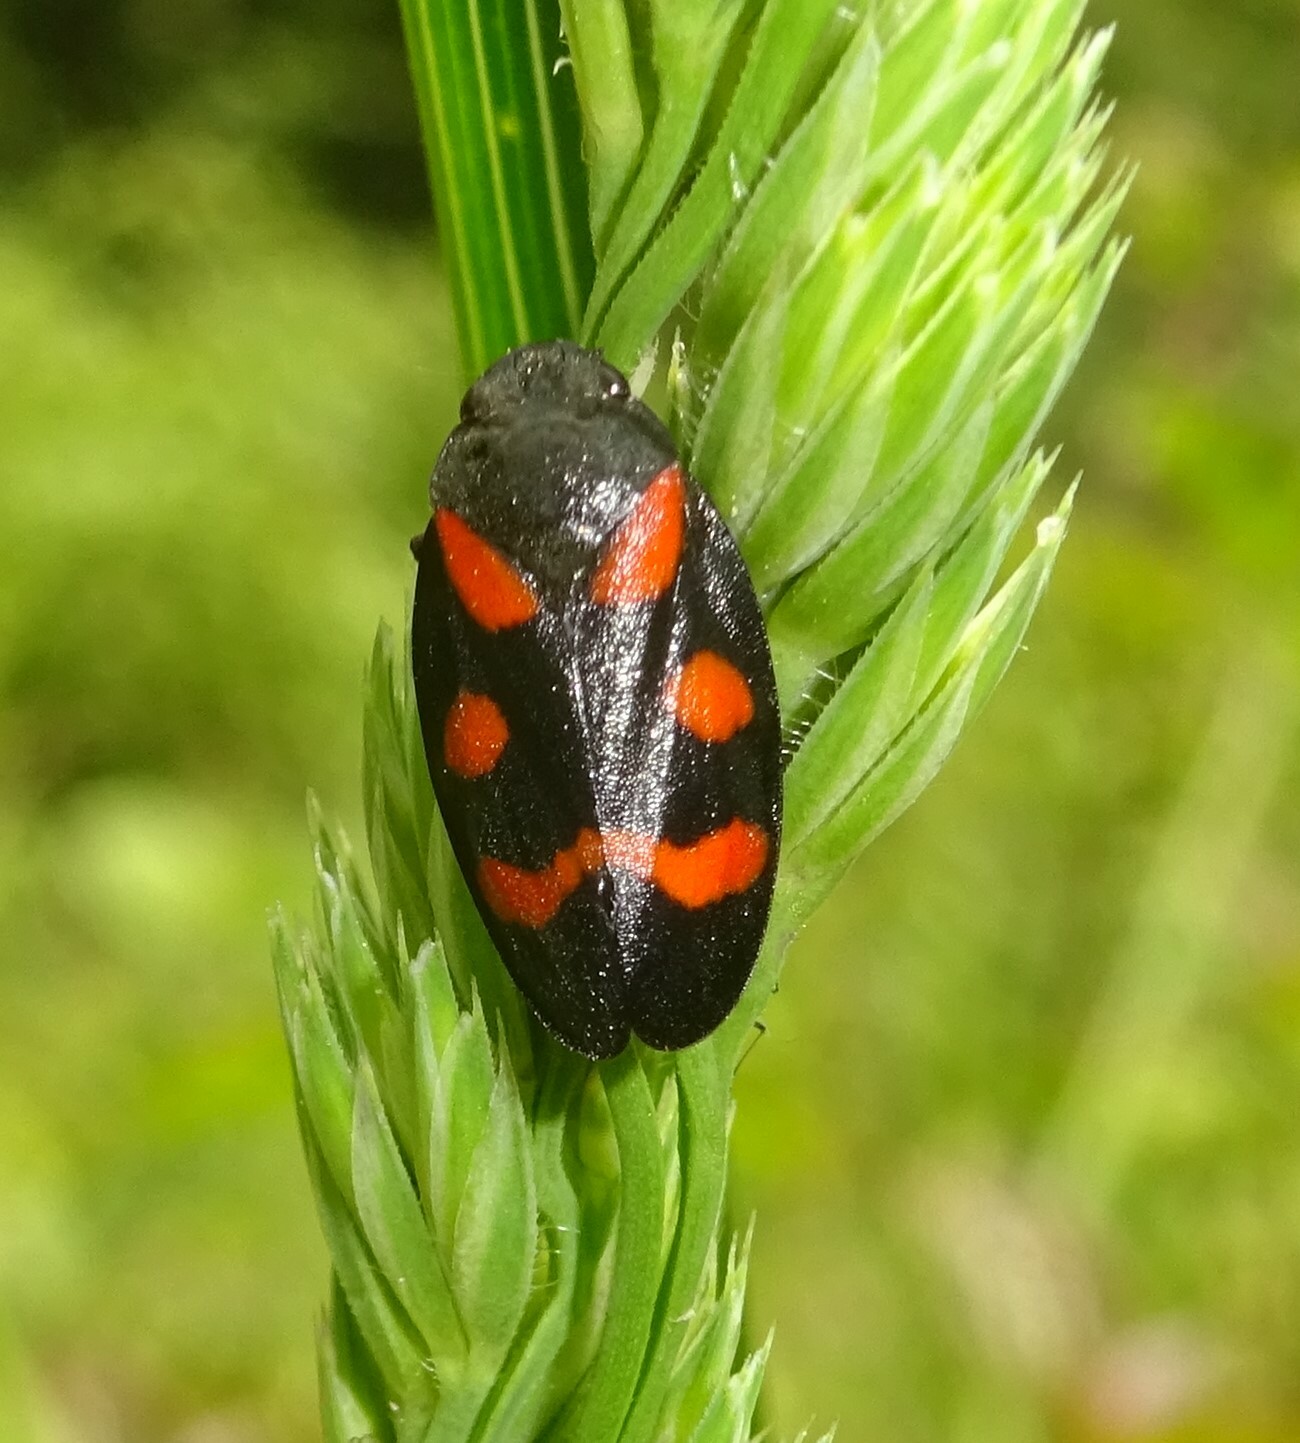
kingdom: Animalia
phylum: Arthropoda
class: Insecta
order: Hemiptera
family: Cercopidae
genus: Cercopis
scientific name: Cercopis arcuata
